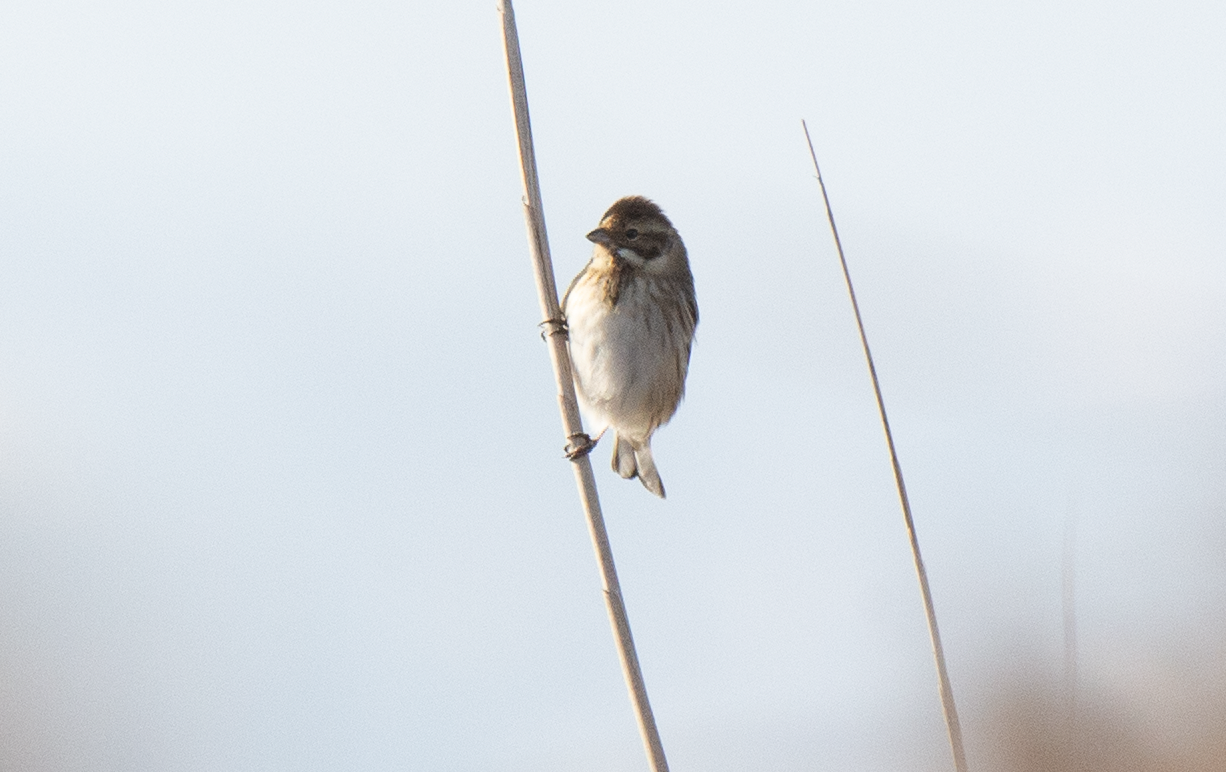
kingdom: Animalia
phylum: Chordata
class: Aves
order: Passeriformes
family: Emberizidae
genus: Emberiza
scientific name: Emberiza schoeniclus
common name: Reed bunting
